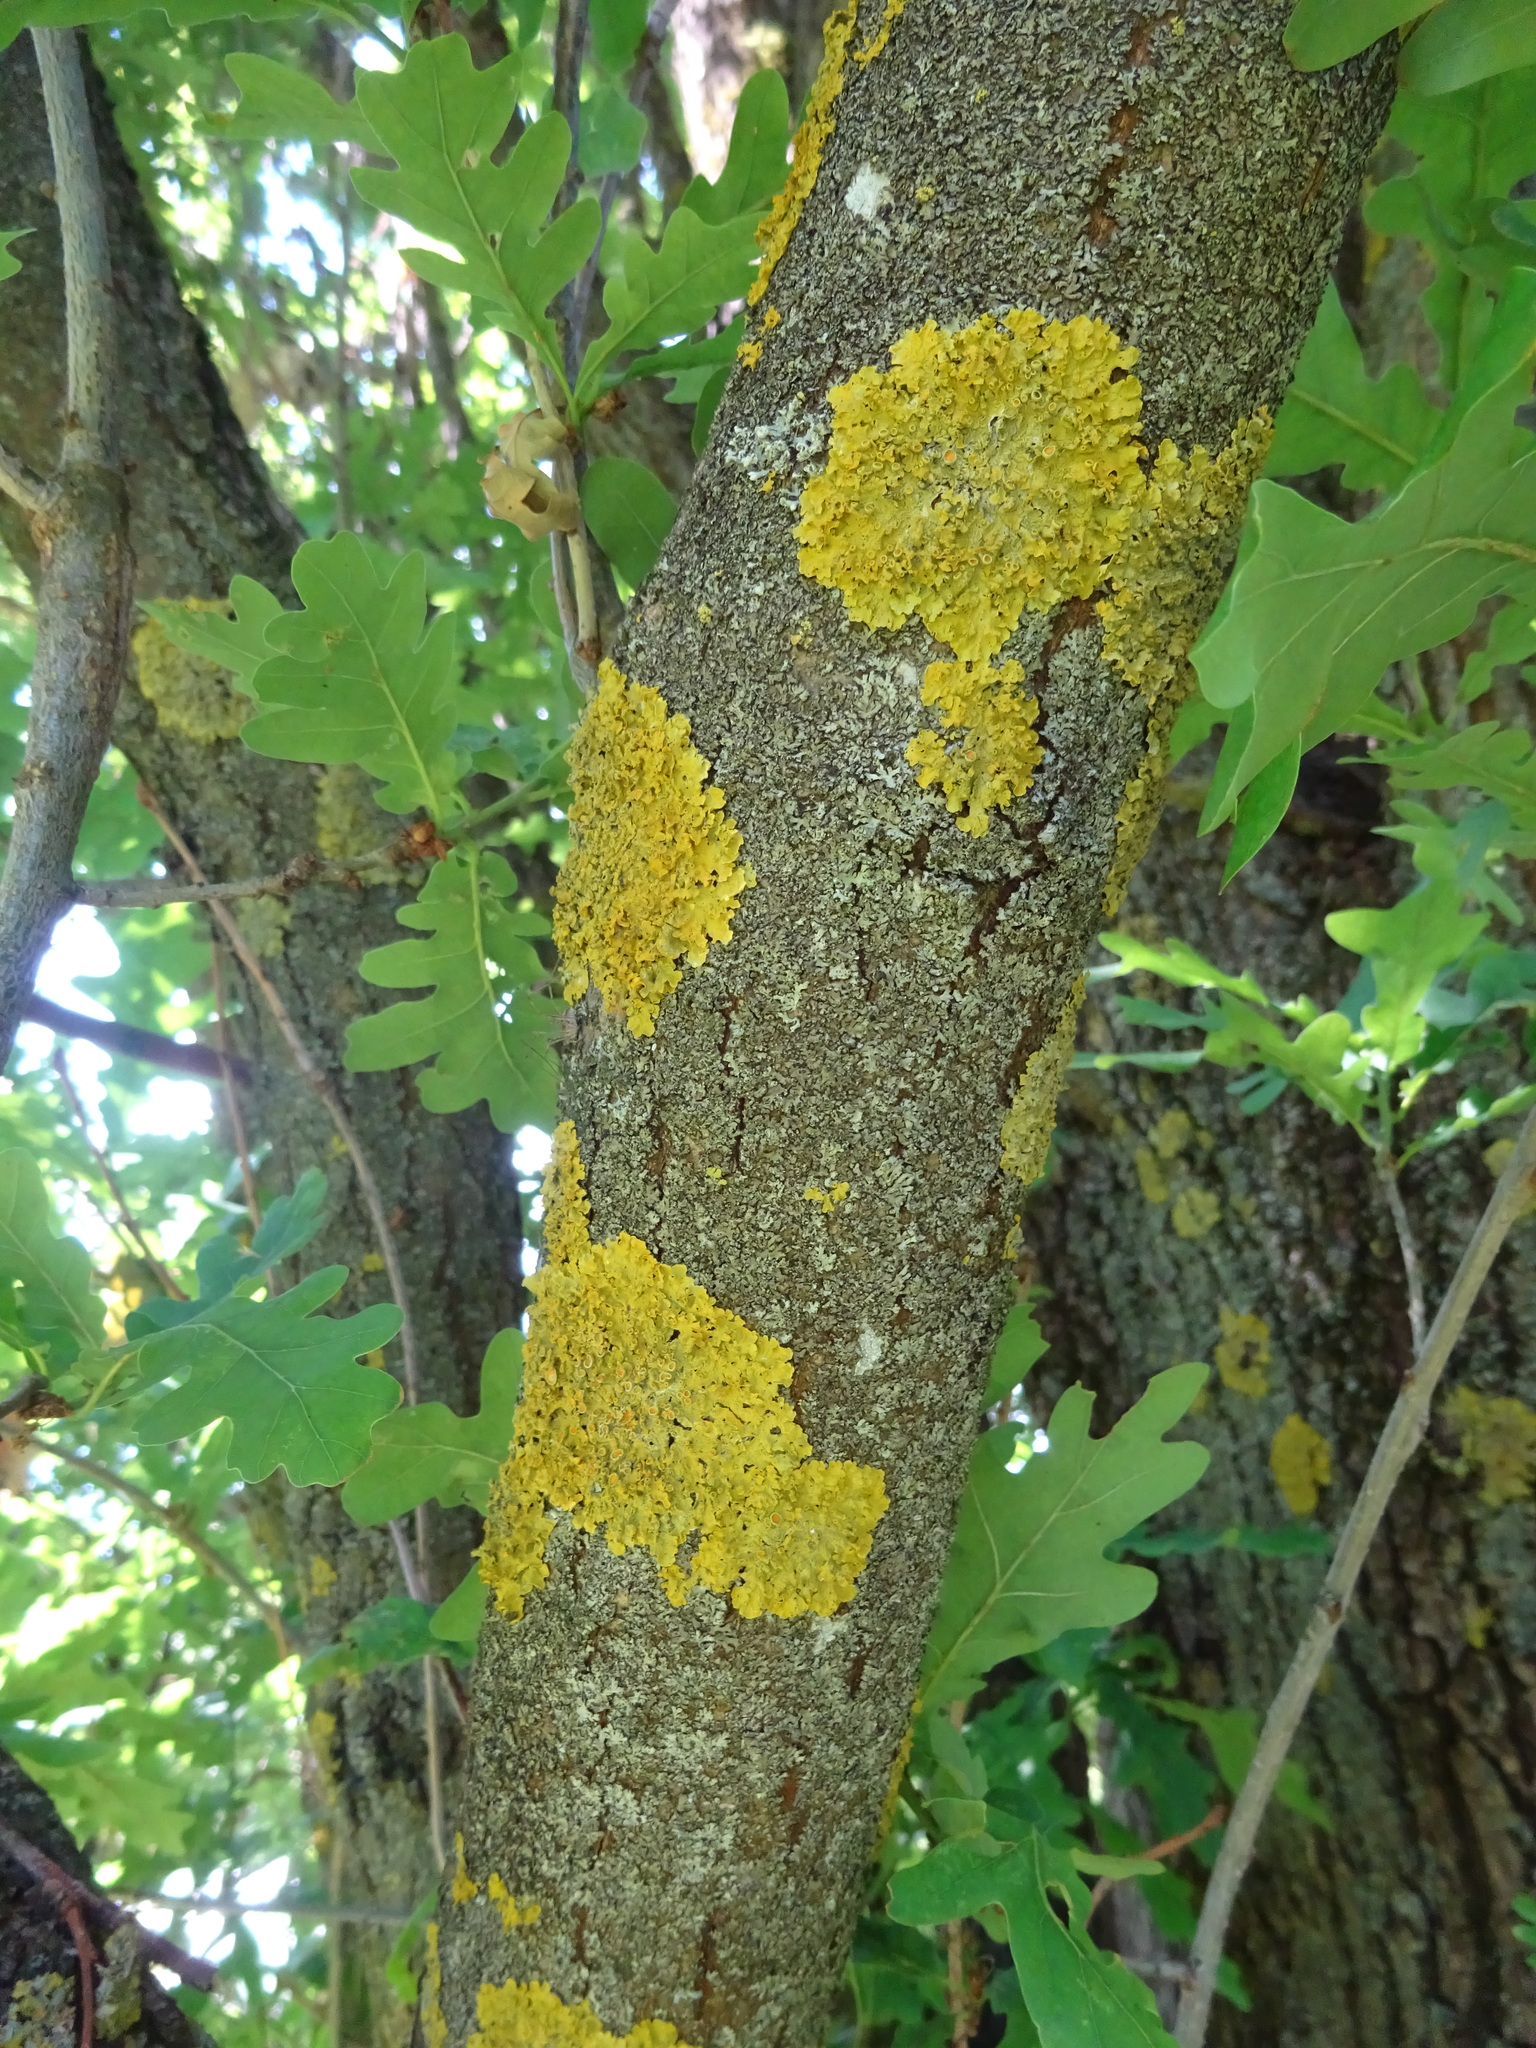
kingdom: Fungi
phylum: Ascomycota
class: Lecanoromycetes
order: Teloschistales
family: Teloschistaceae
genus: Xanthoria
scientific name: Xanthoria parietina
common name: Common orange lichen
